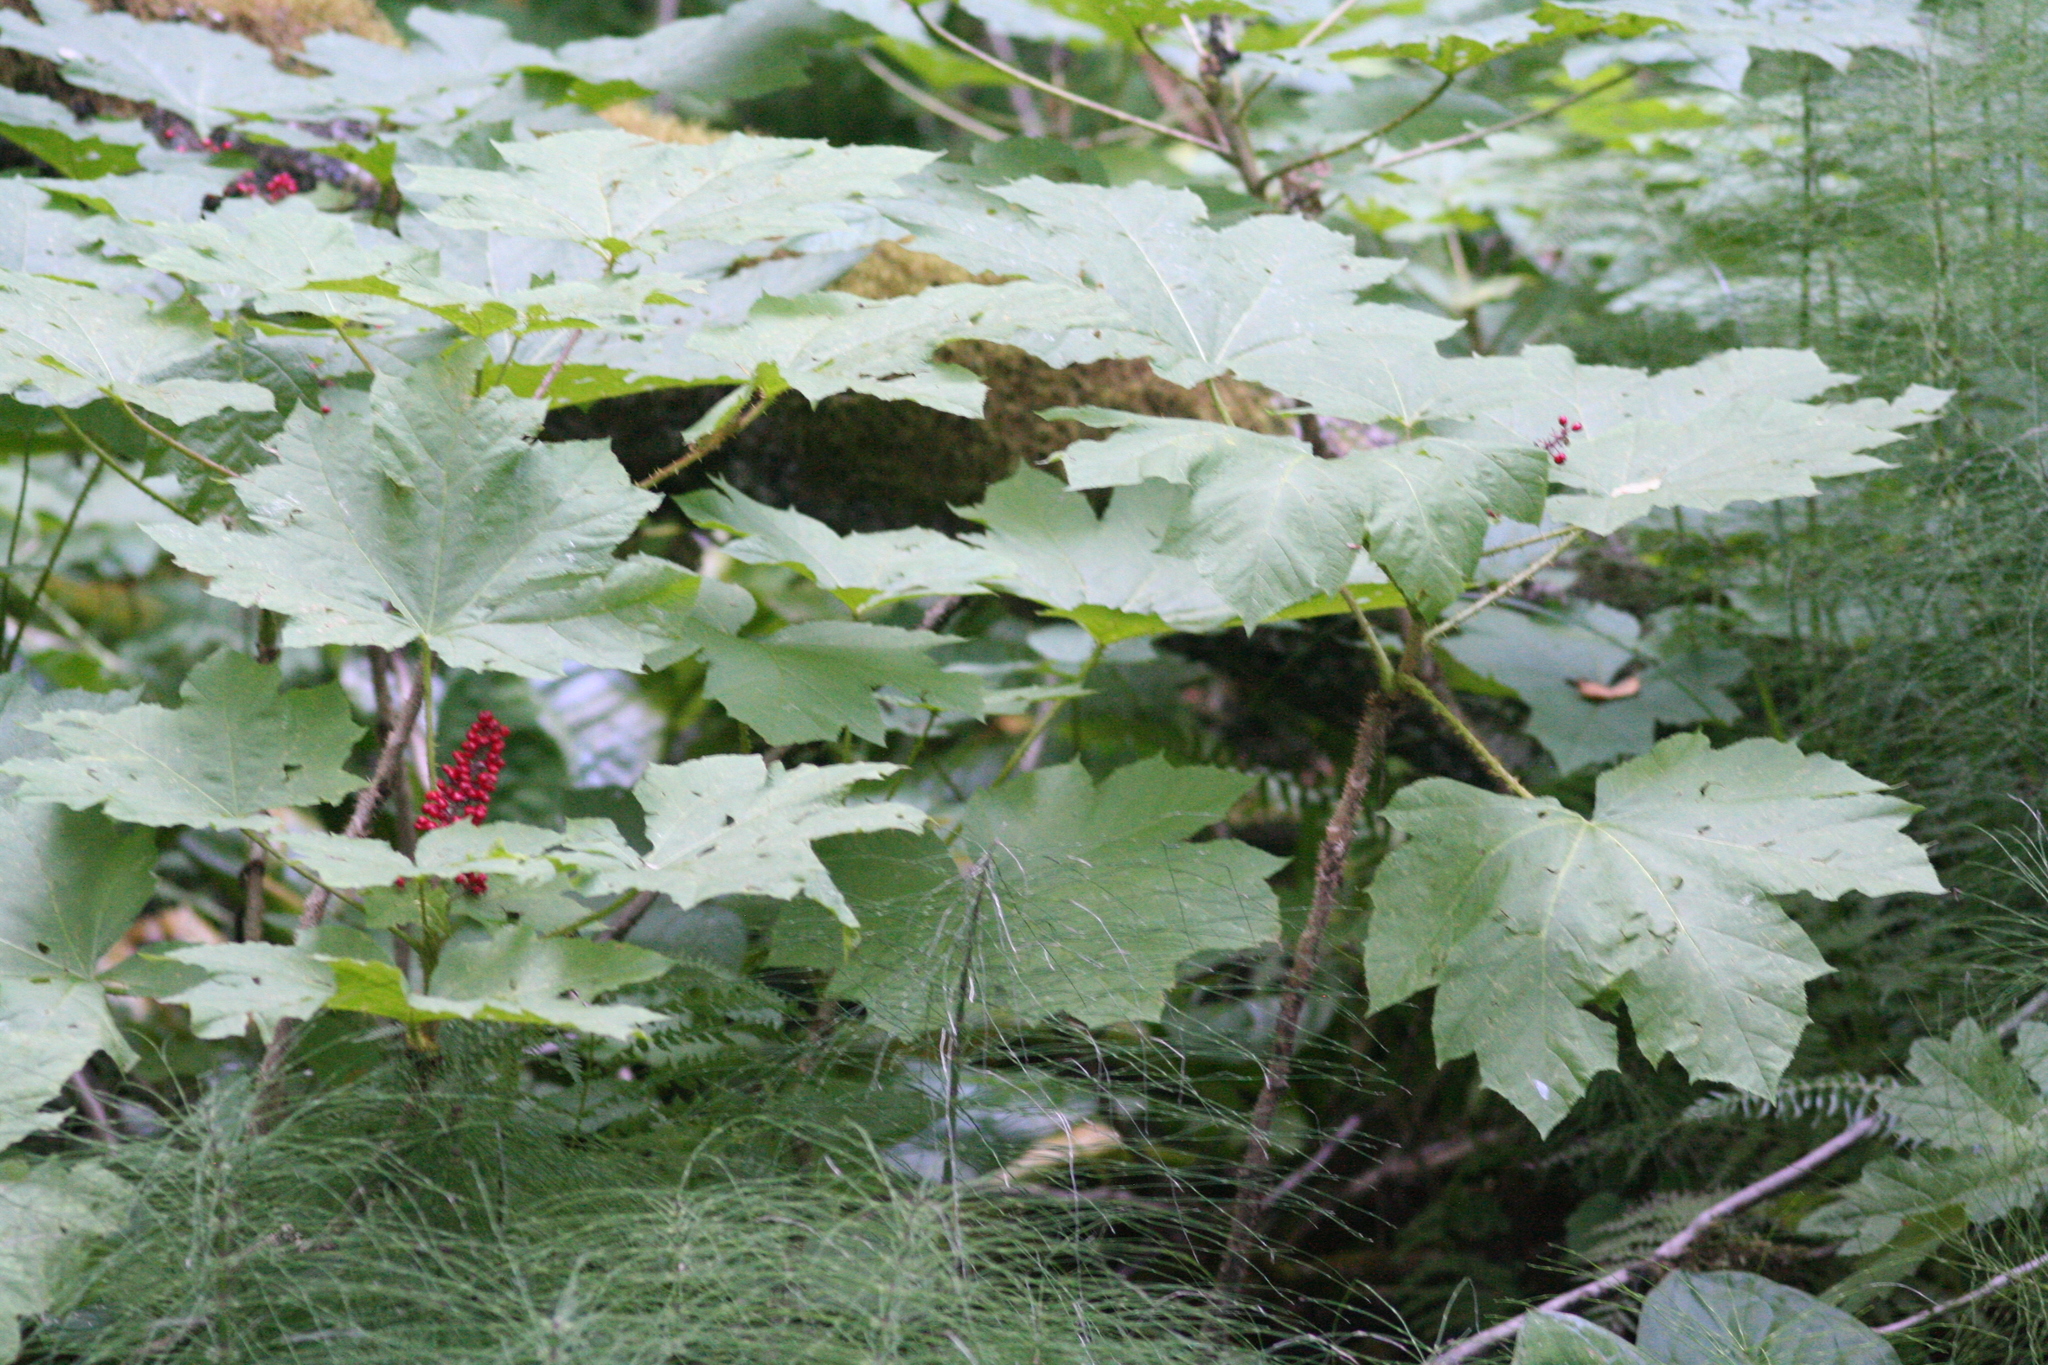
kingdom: Plantae
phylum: Tracheophyta
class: Magnoliopsida
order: Apiales
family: Araliaceae
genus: Oplopanax
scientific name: Oplopanax horridus
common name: Devil's walking-stick
